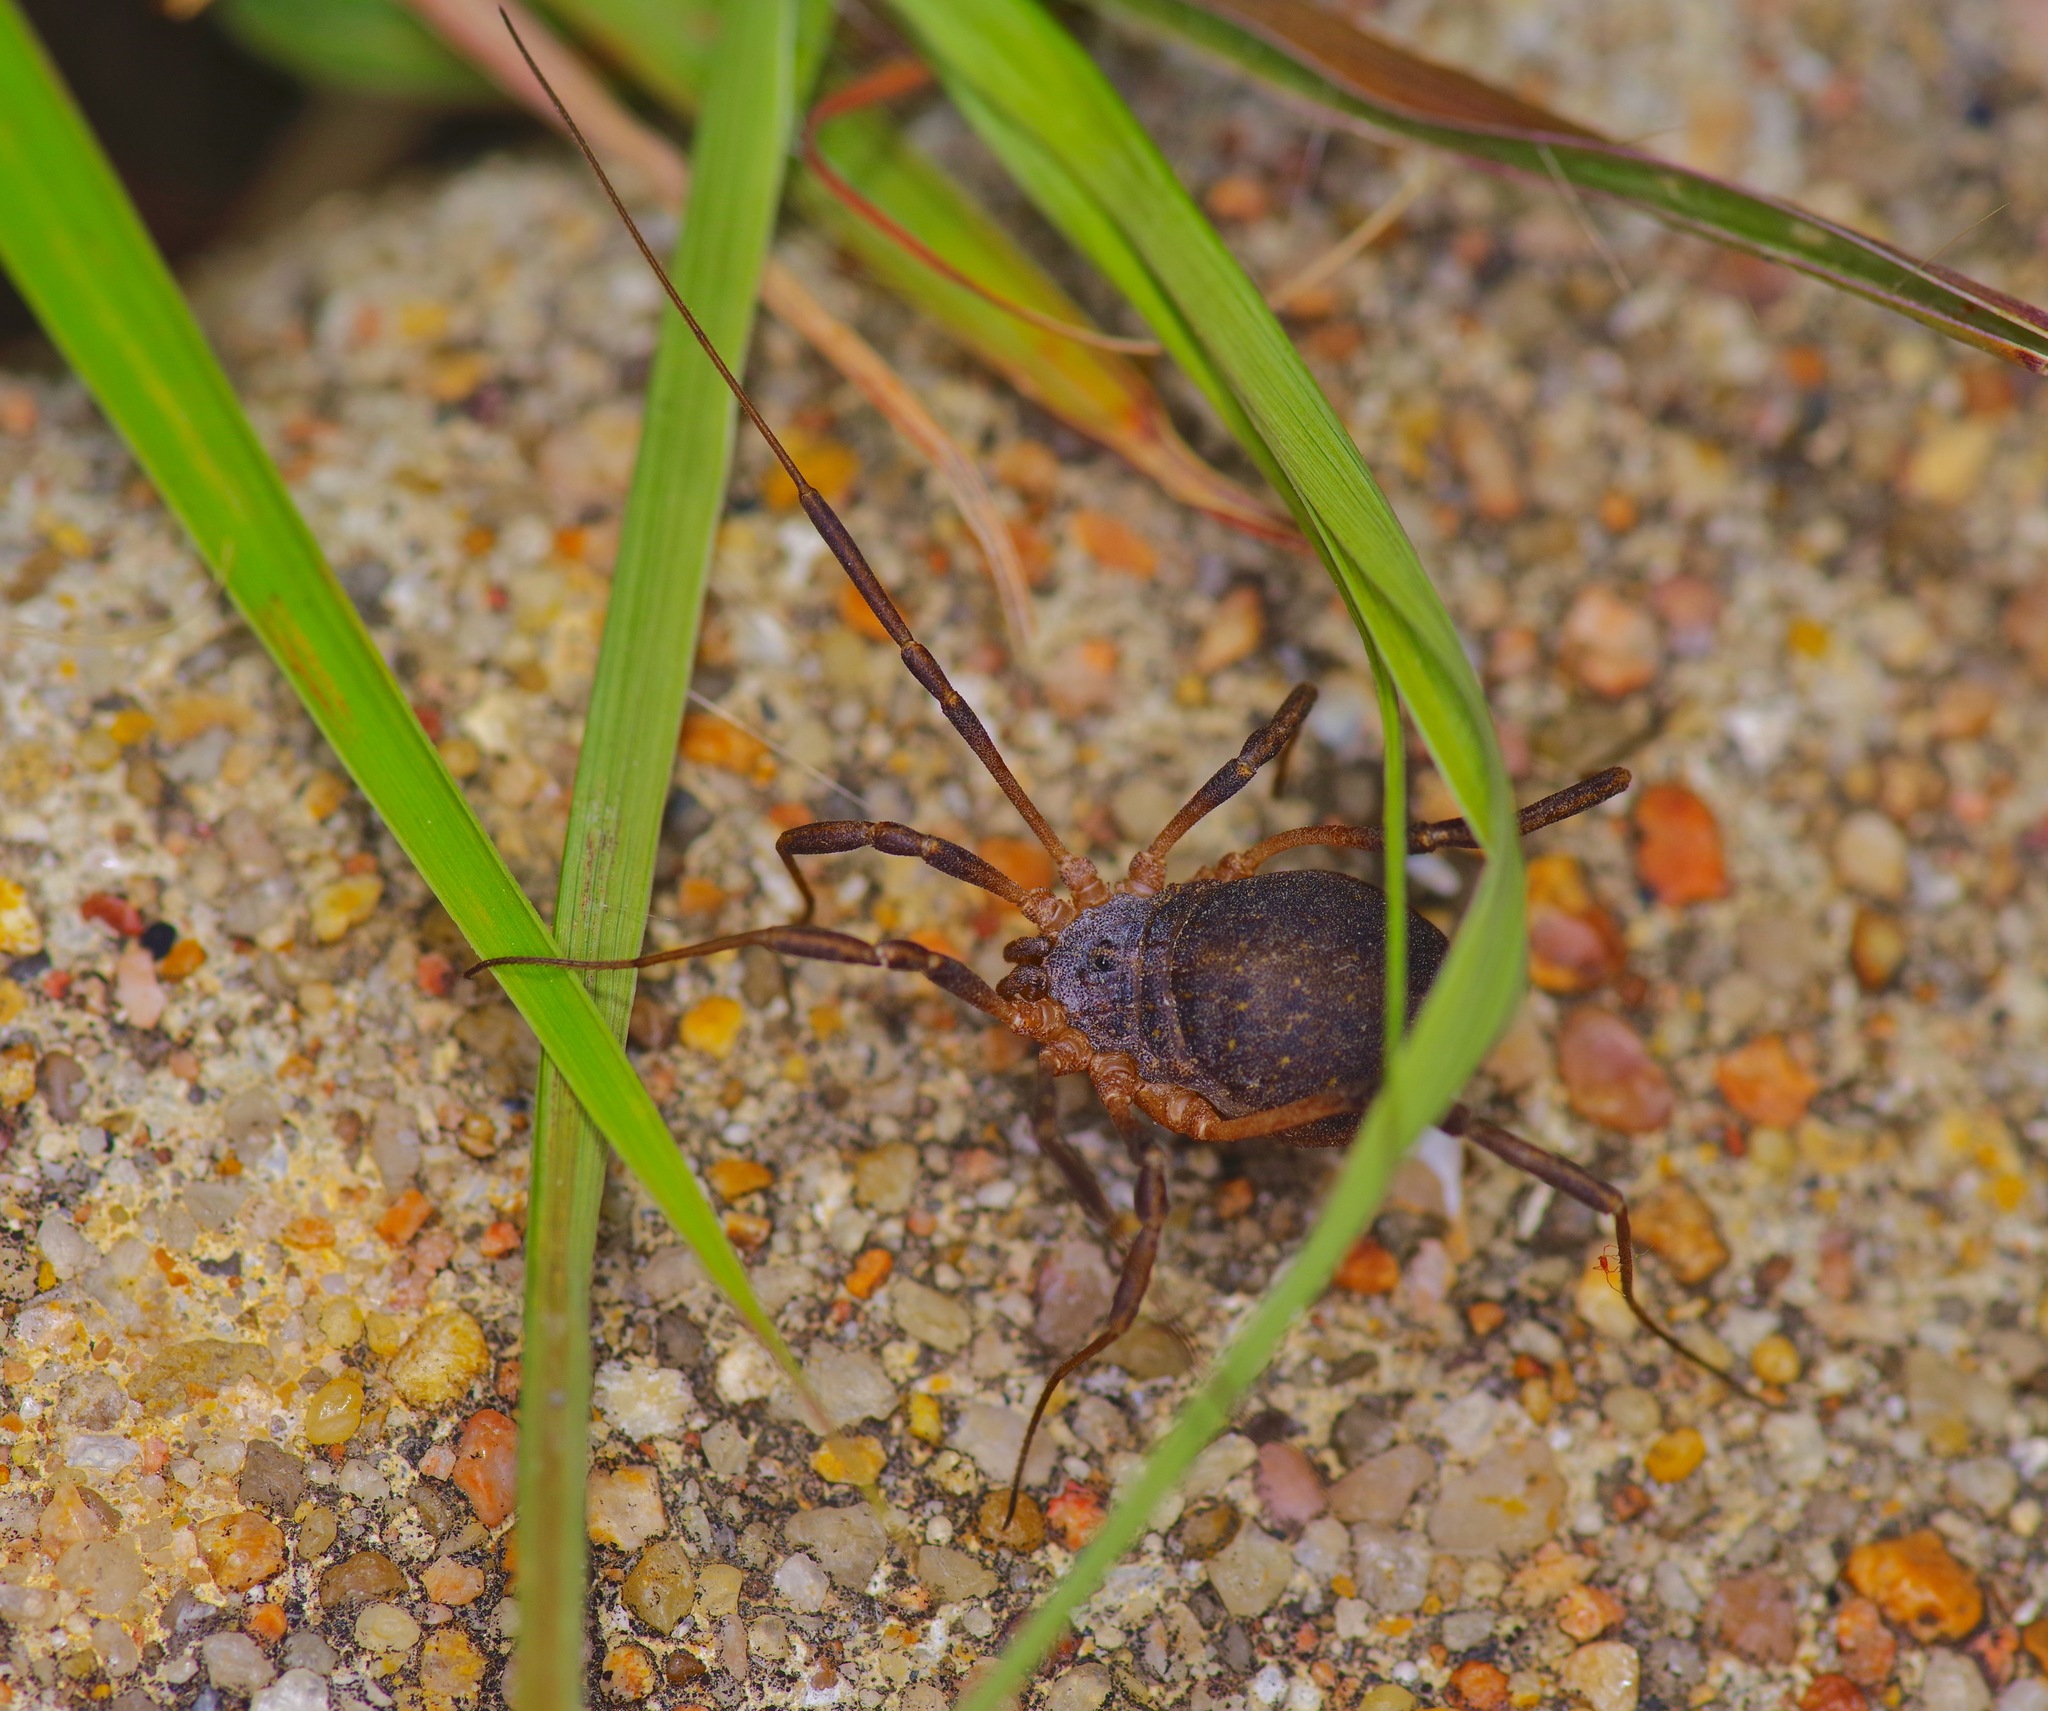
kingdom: Animalia
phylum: Arthropoda
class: Arachnida
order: Opiliones
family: Sclerosomatidae
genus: Eumesosoma
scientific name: Eumesosoma roeweri
